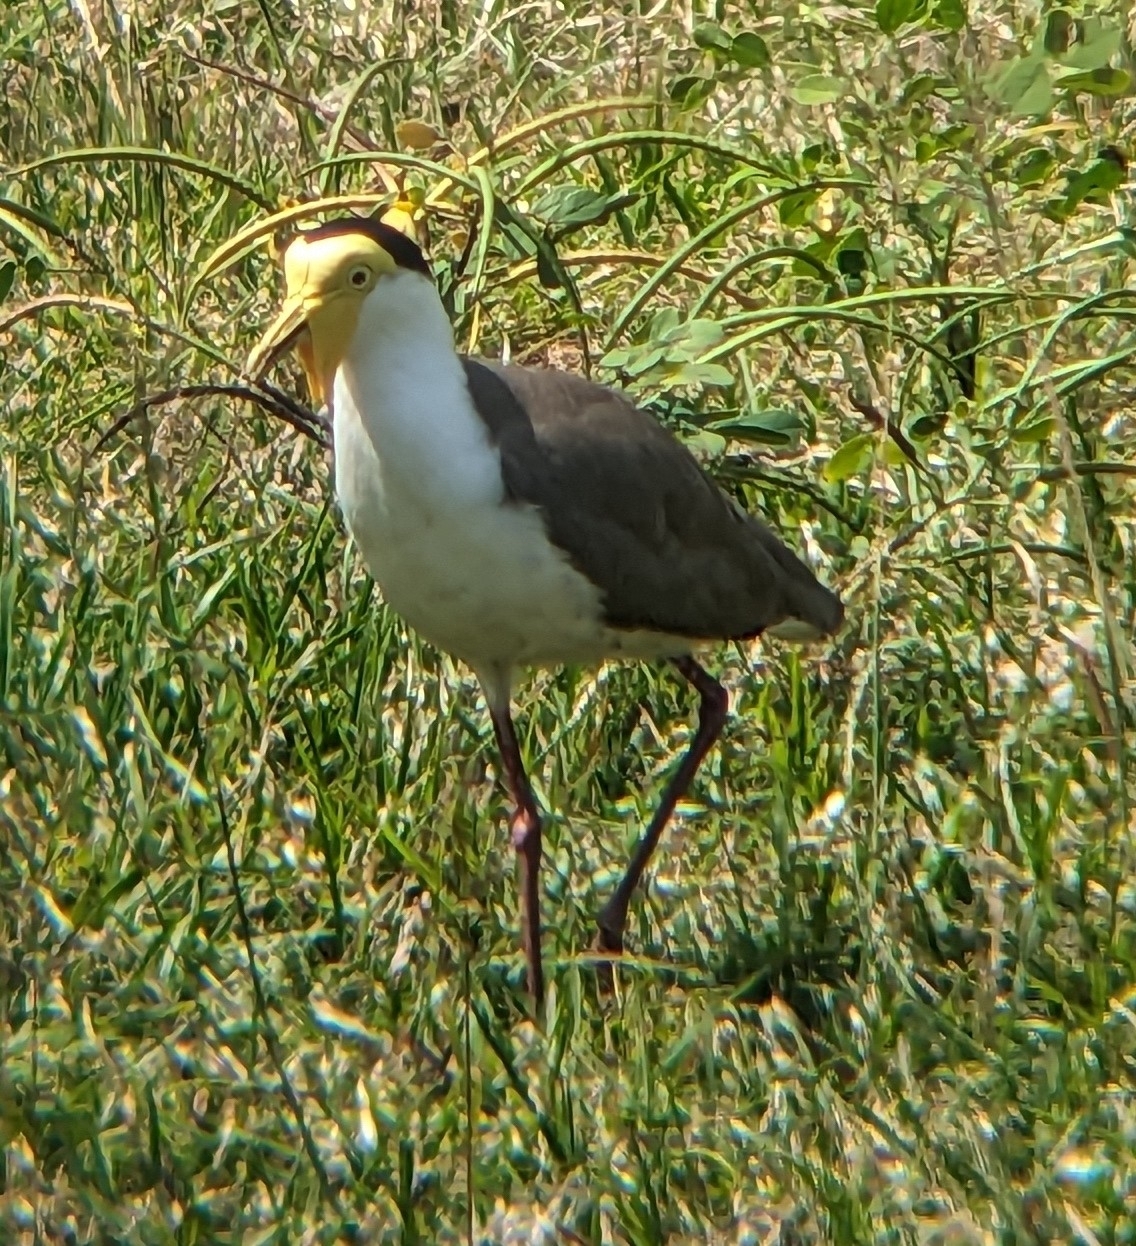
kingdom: Animalia
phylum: Chordata
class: Aves
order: Charadriiformes
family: Charadriidae
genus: Vanellus
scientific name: Vanellus miles
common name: Masked lapwing
